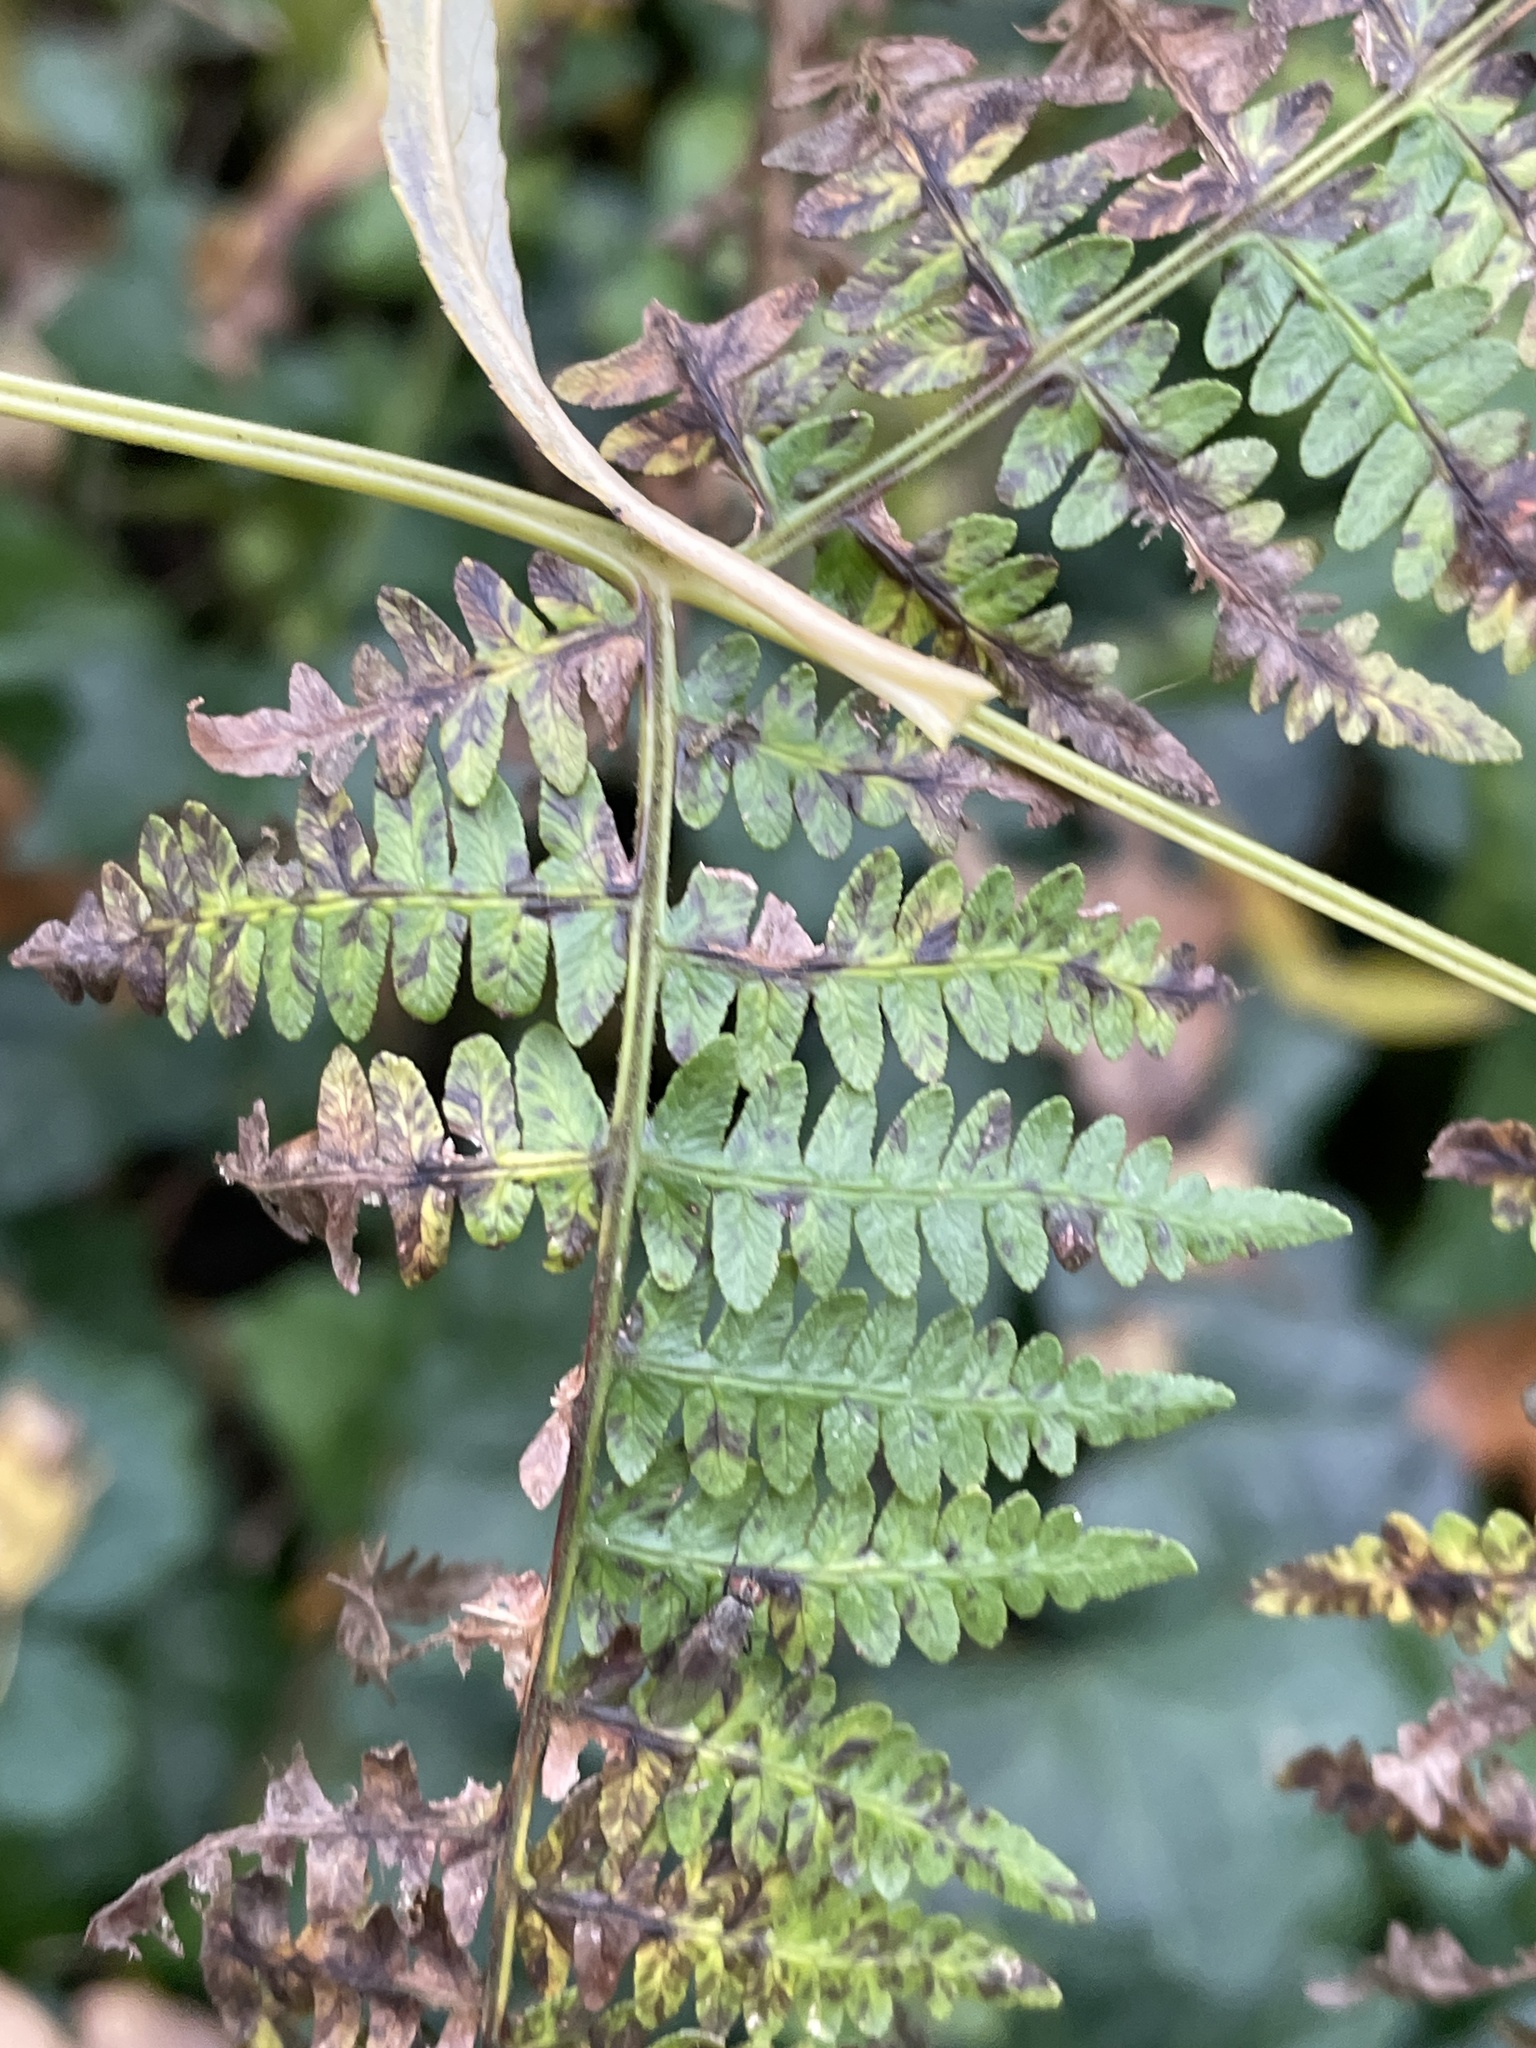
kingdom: Plantae
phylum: Tracheophyta
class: Polypodiopsida
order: Polypodiales
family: Dennstaedtiaceae
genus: Pteridium
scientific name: Pteridium aquilinum
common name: Bracken
